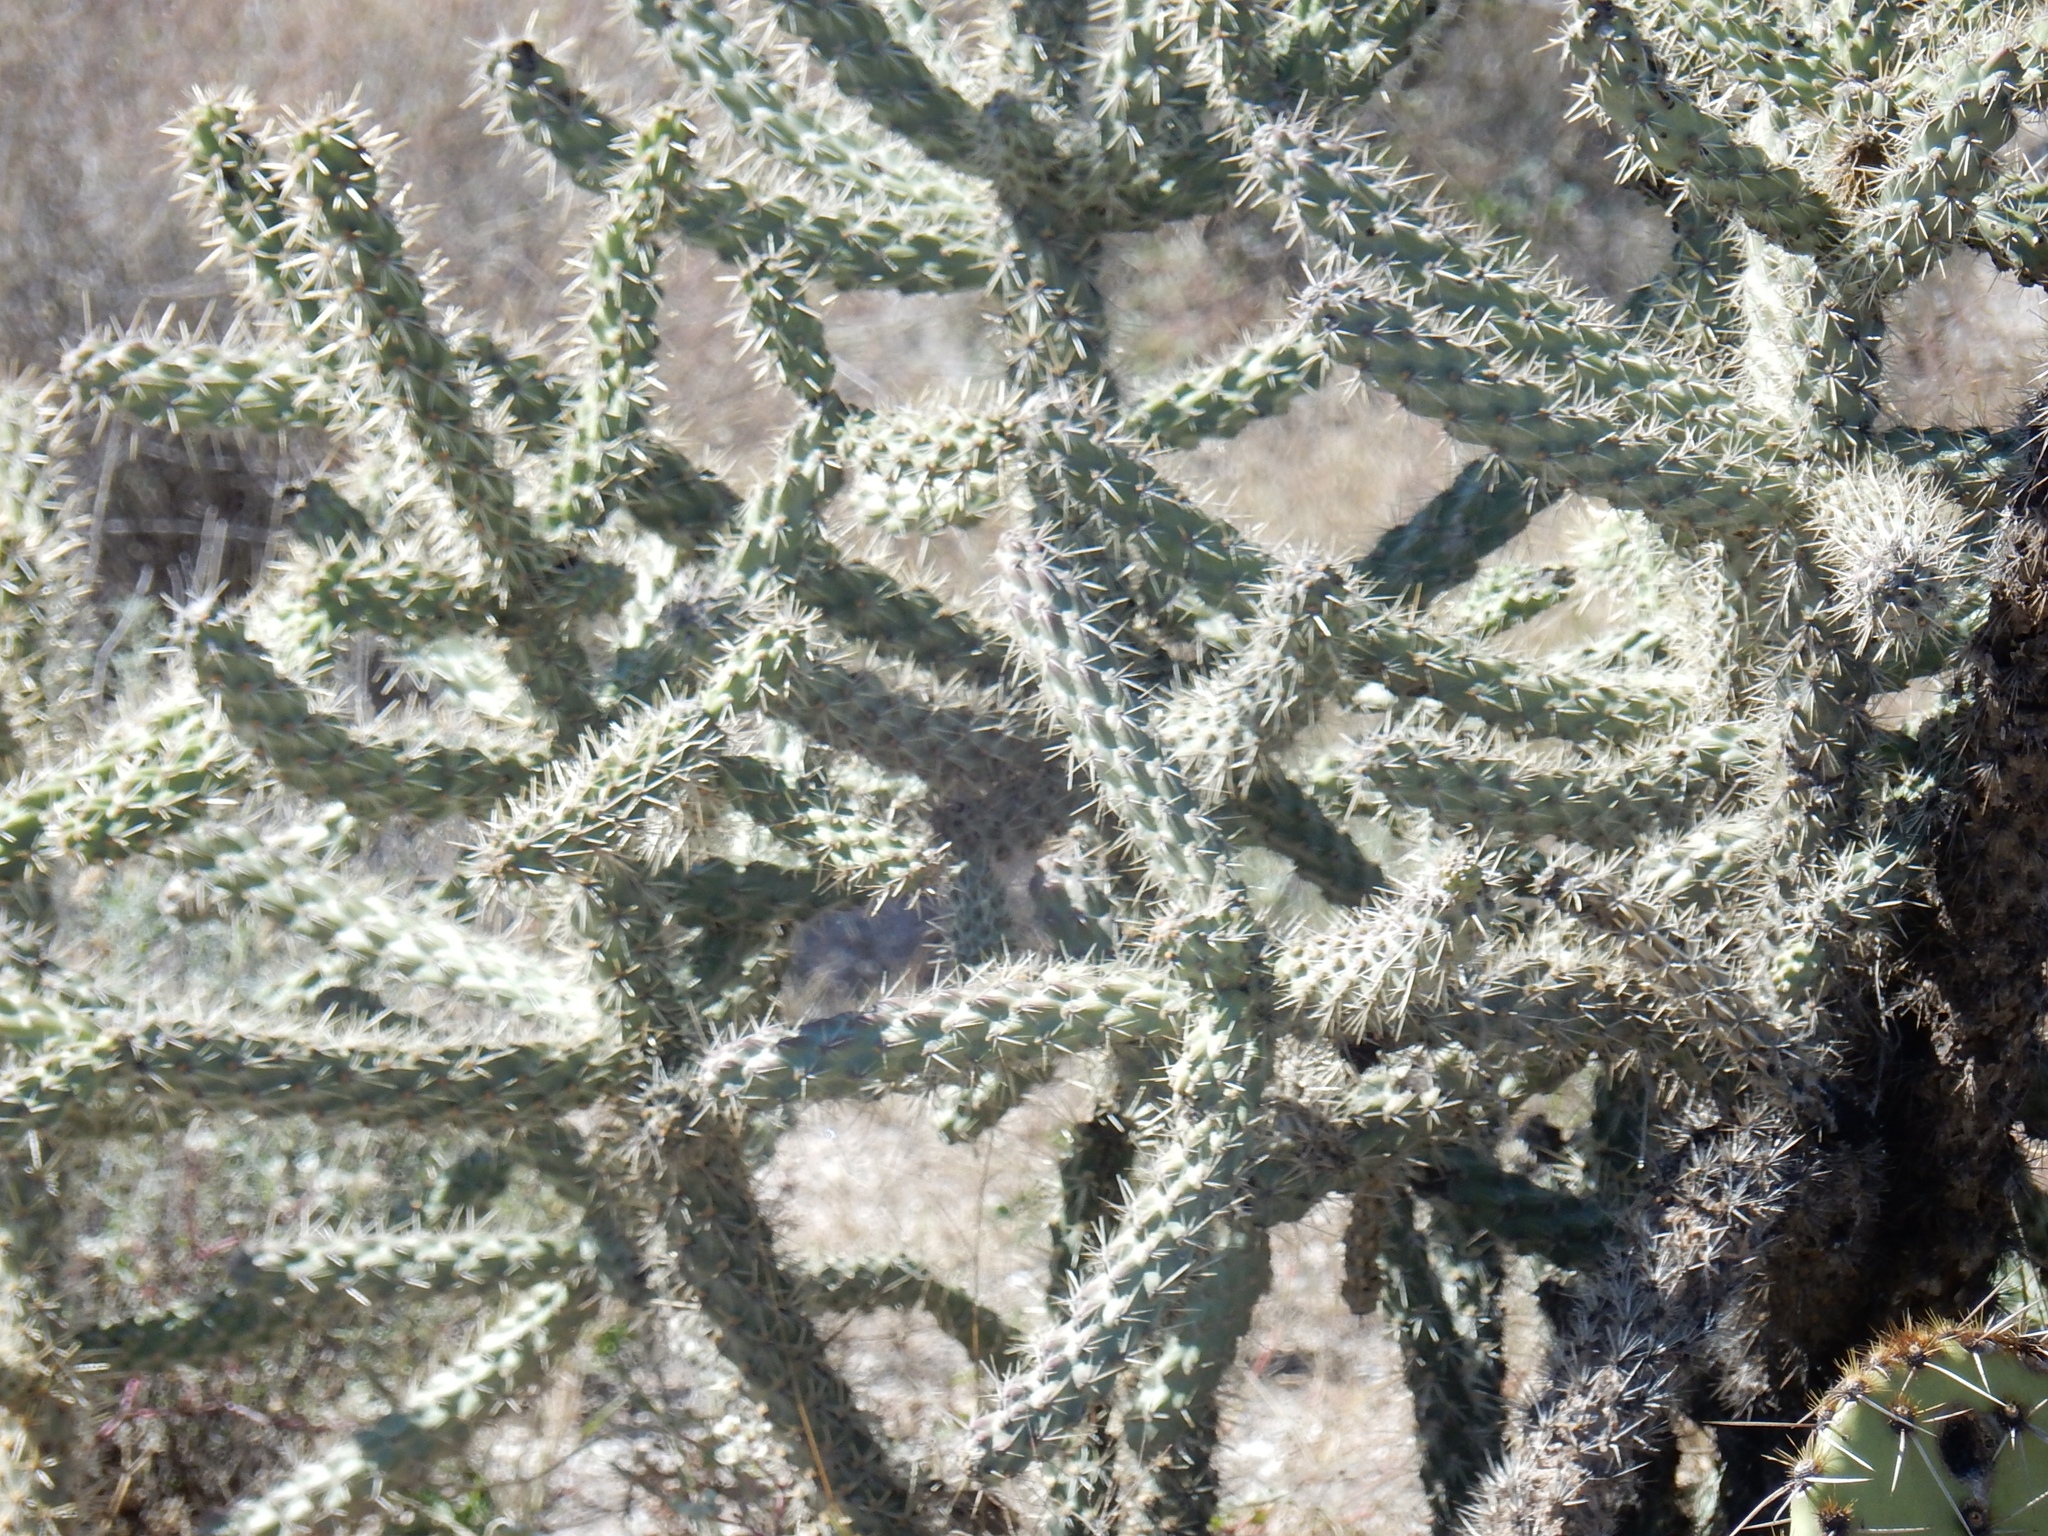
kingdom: Plantae
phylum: Tracheophyta
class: Magnoliopsida
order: Caryophyllales
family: Cactaceae
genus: Cylindropuntia
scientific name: Cylindropuntia imbricata
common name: Candelabrum cactus
